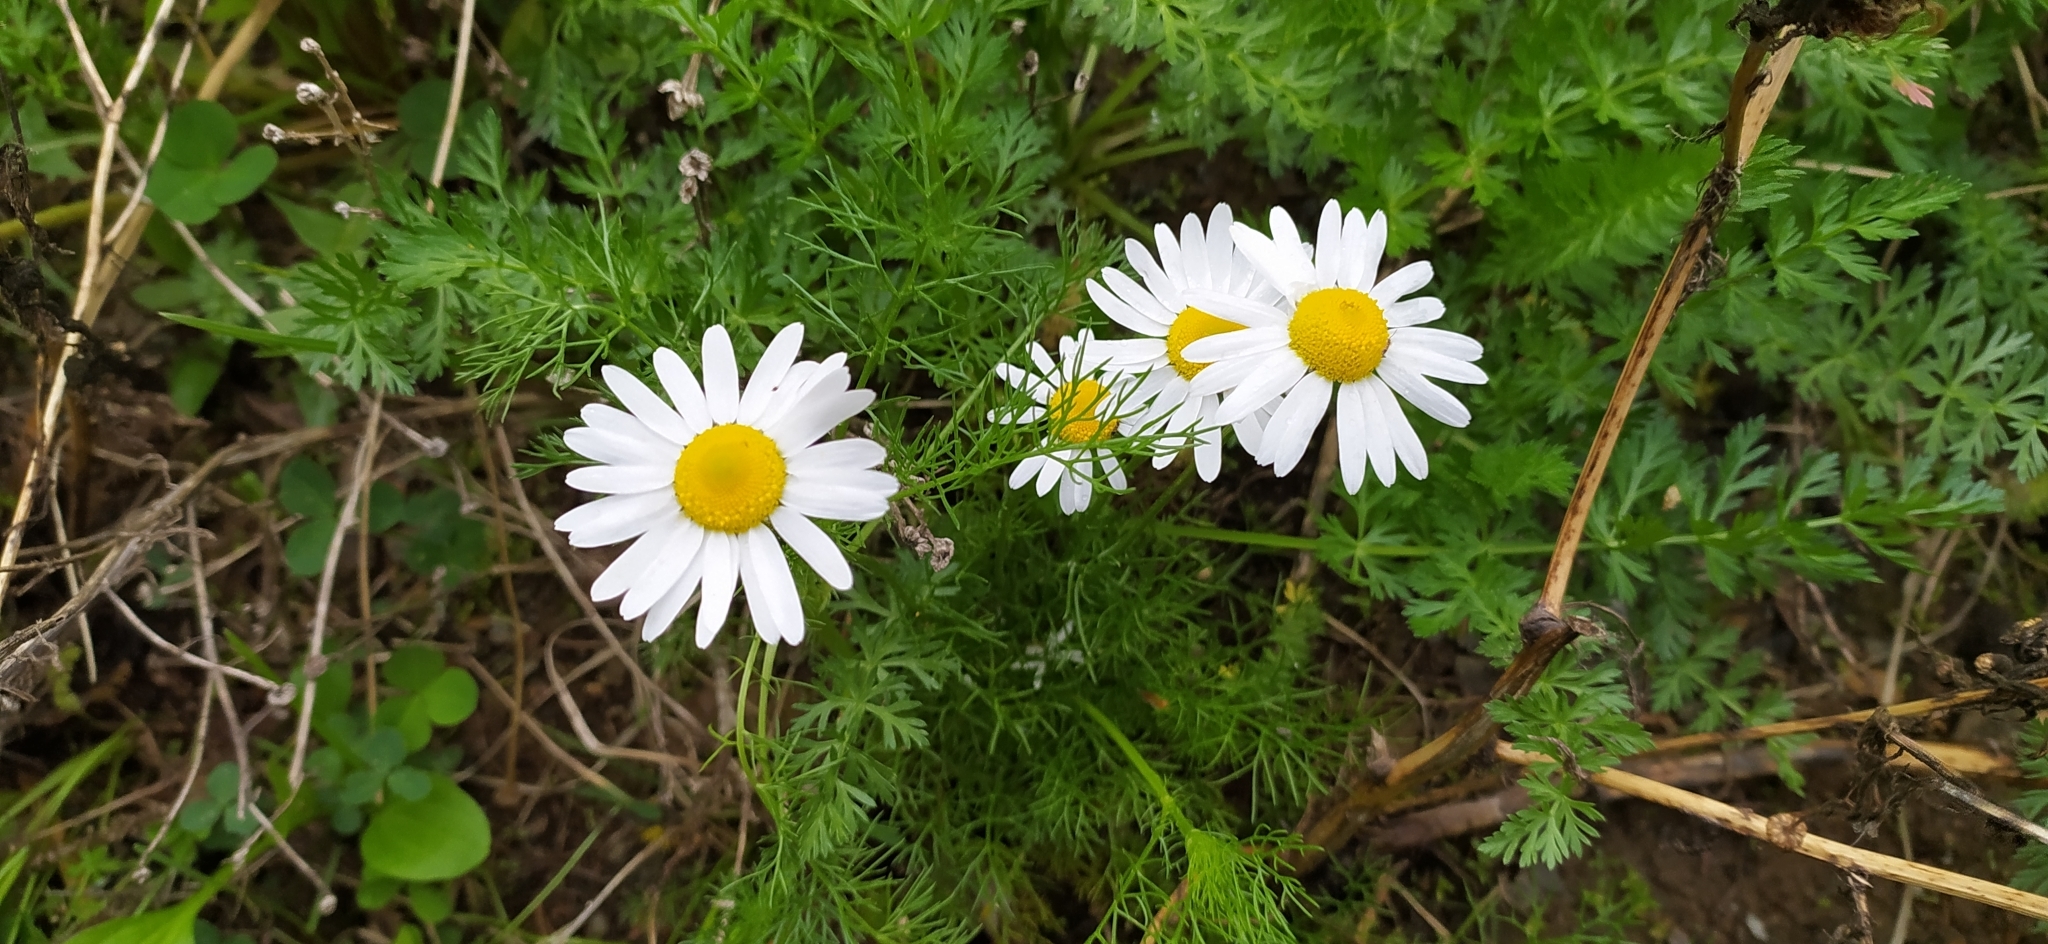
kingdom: Plantae
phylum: Tracheophyta
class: Magnoliopsida
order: Asterales
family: Asteraceae
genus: Tripleurospermum
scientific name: Tripleurospermum inodorum
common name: Scentless mayweed
